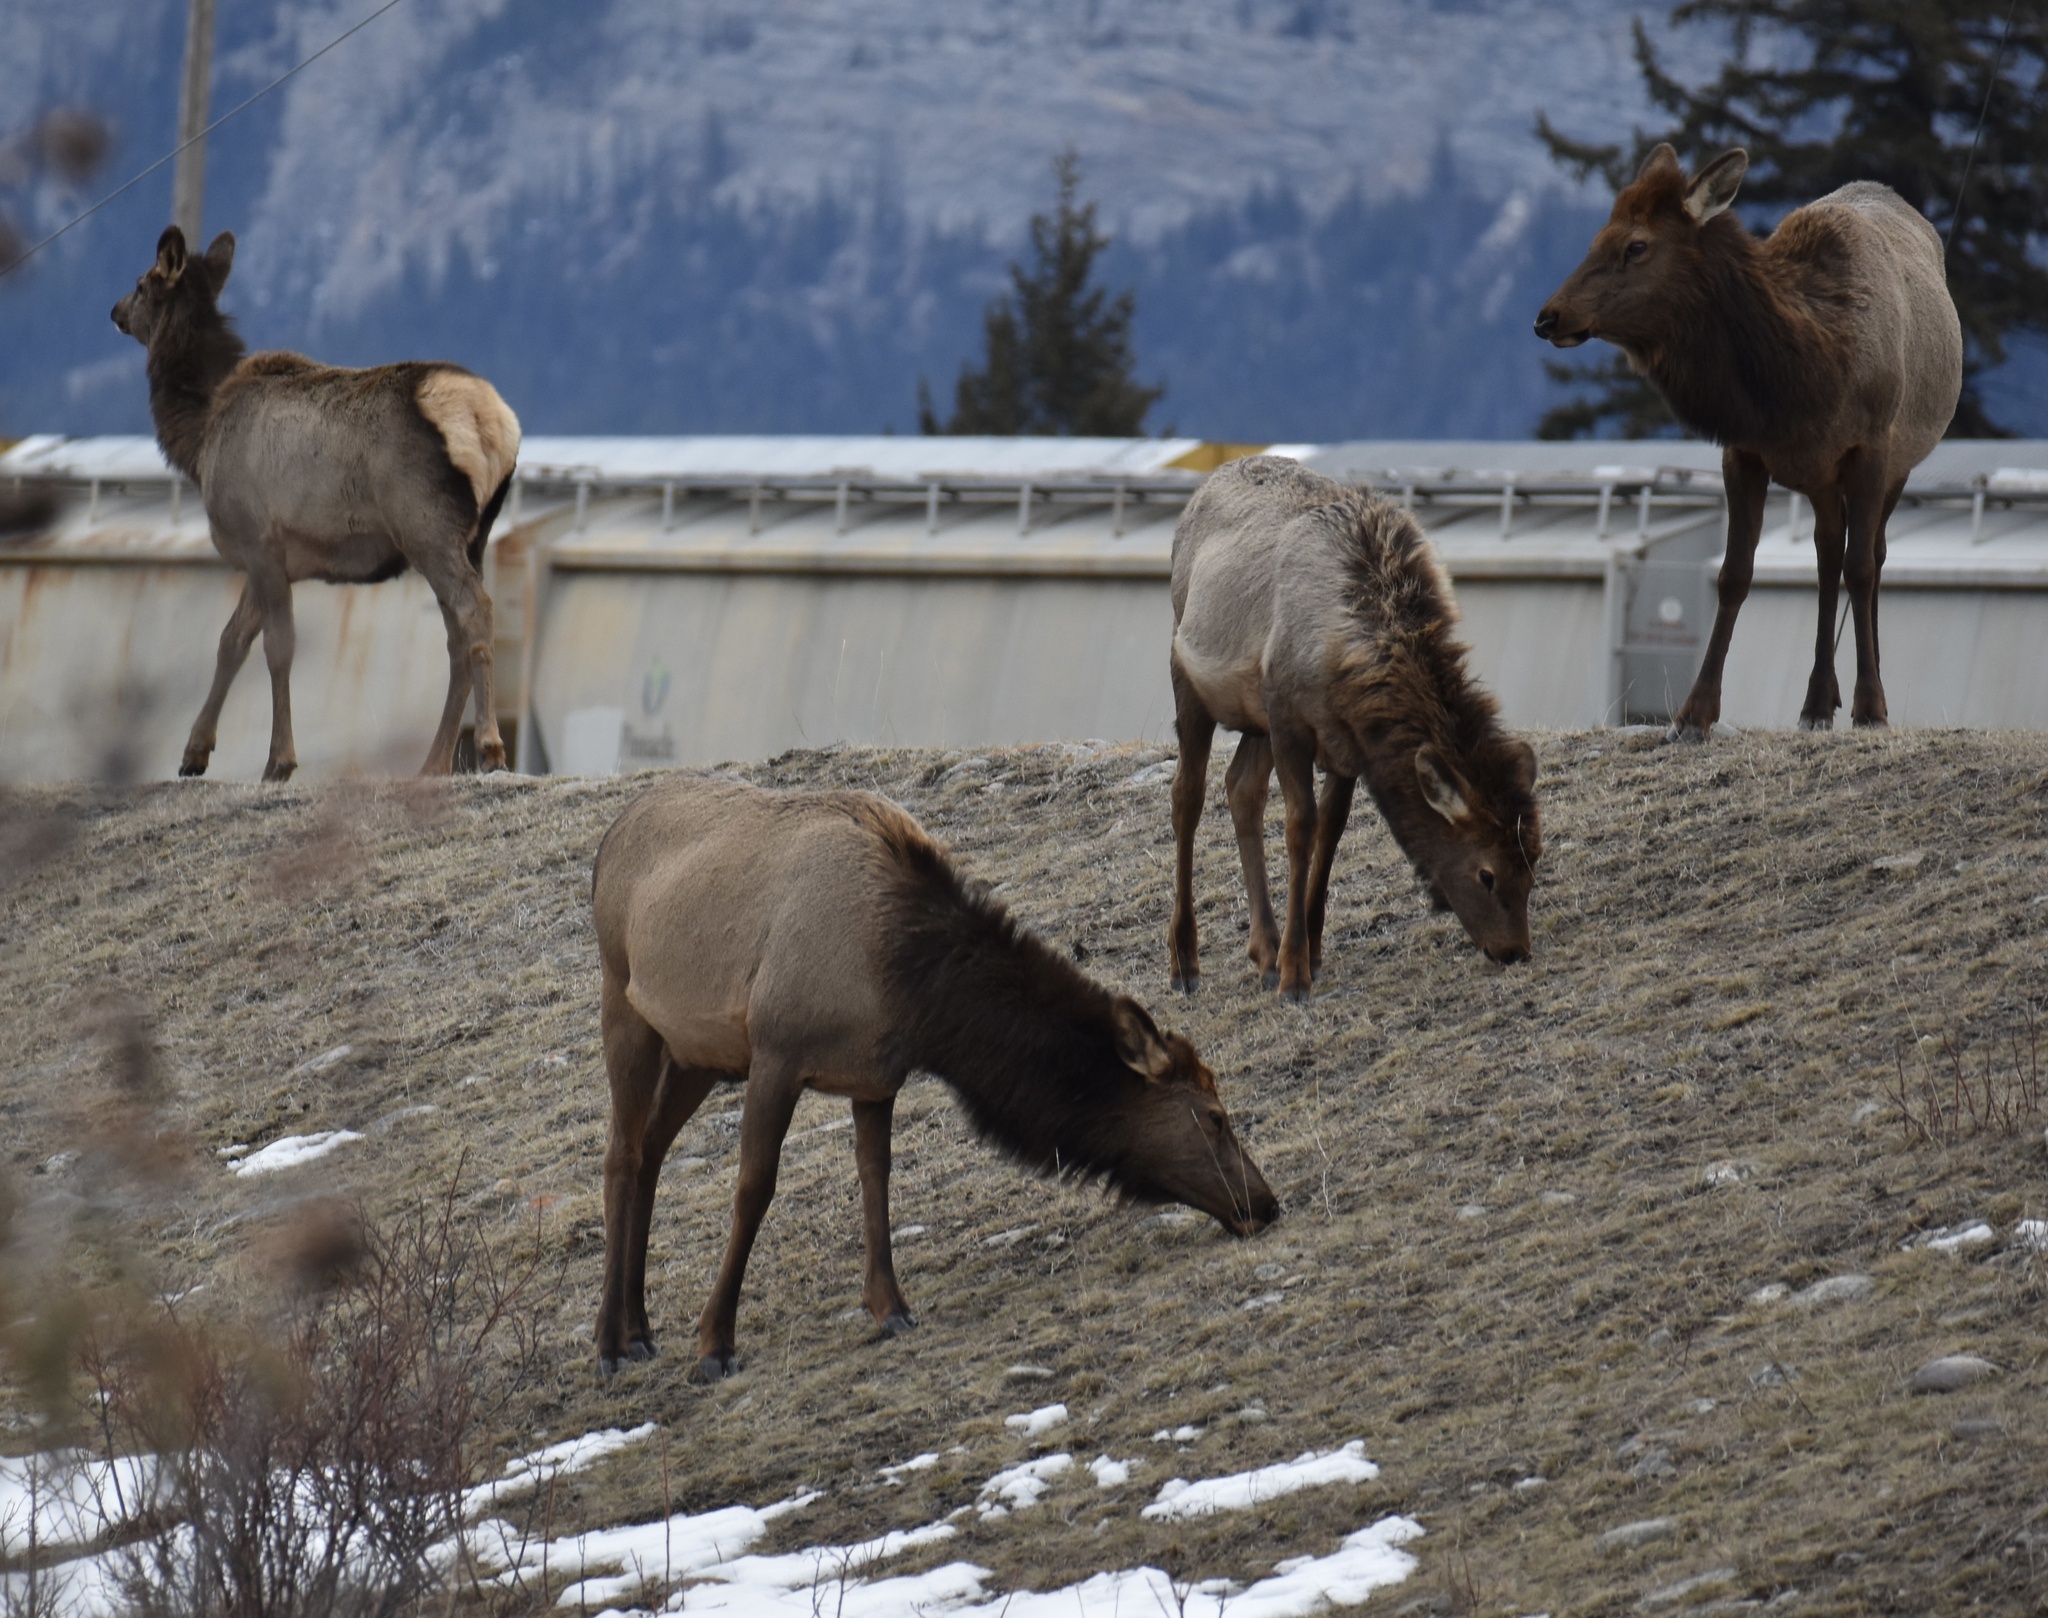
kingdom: Animalia
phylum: Chordata
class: Mammalia
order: Artiodactyla
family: Cervidae
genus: Cervus
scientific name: Cervus elaphus
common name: Red deer
